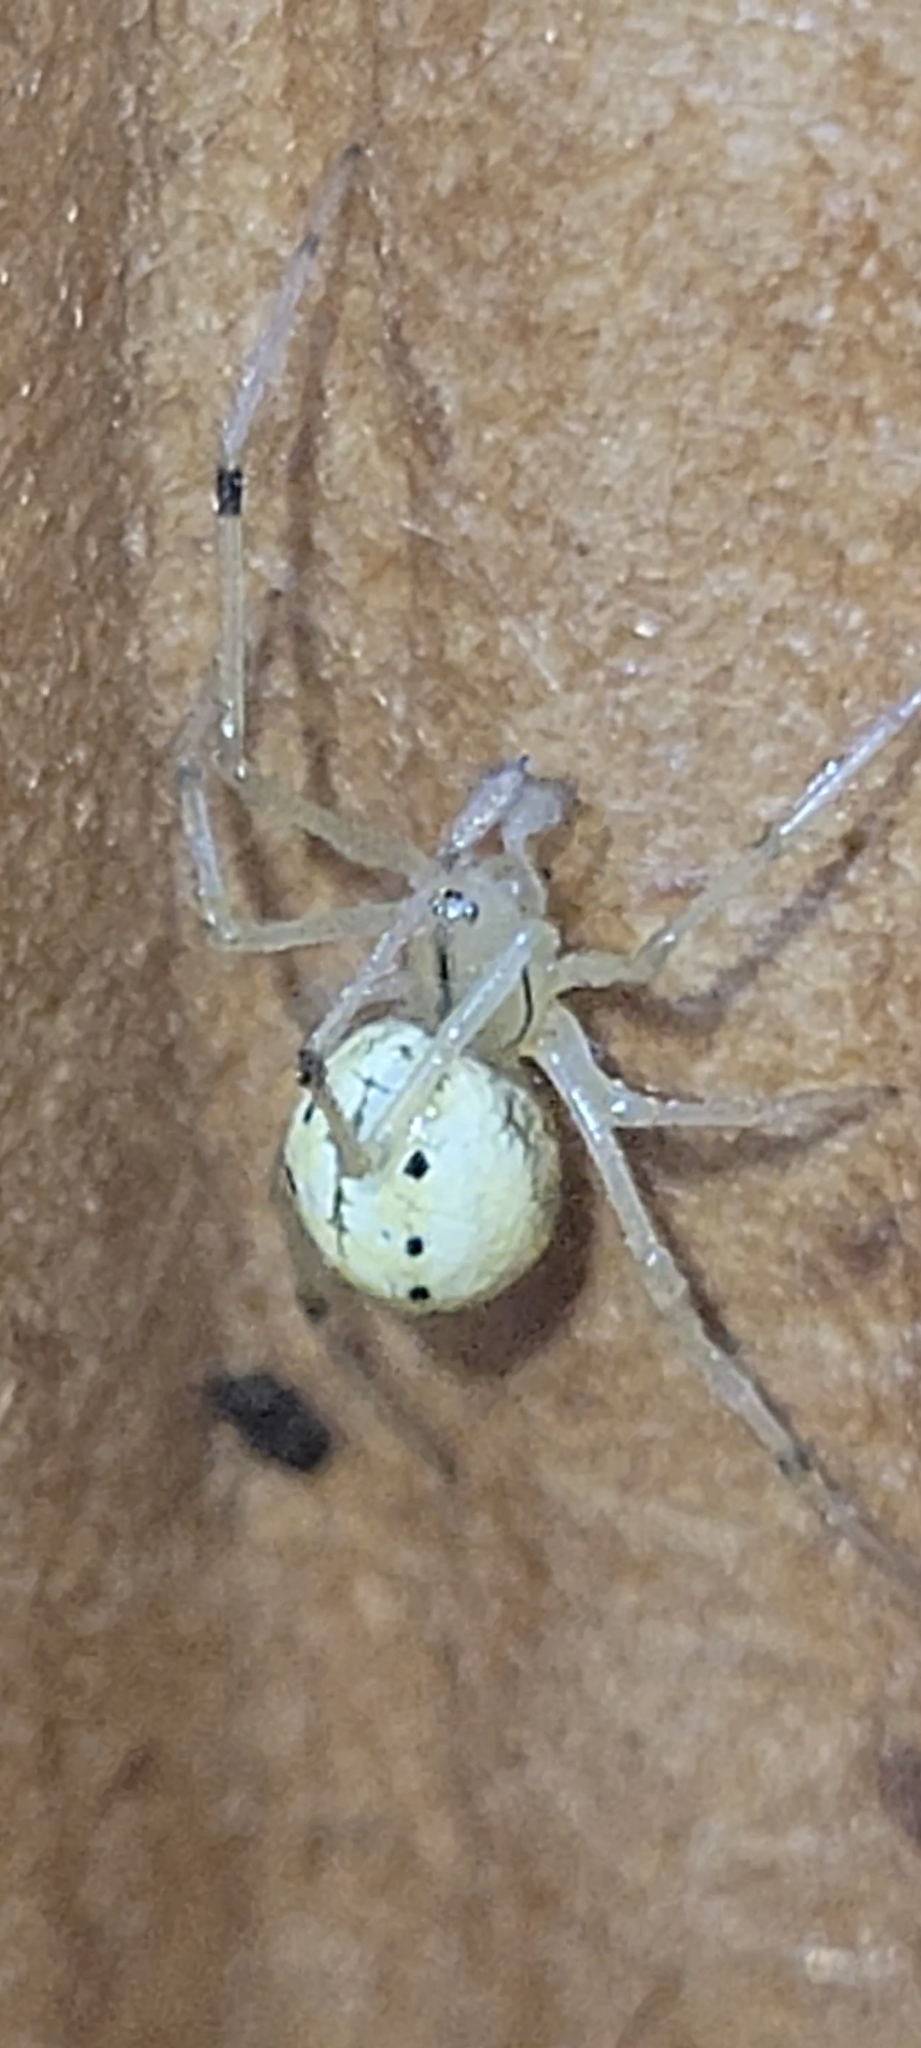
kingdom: Animalia
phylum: Arthropoda
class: Arachnida
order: Araneae
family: Theridiidae
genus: Enoplognatha
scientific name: Enoplognatha ovata
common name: Common candy-striped spider
